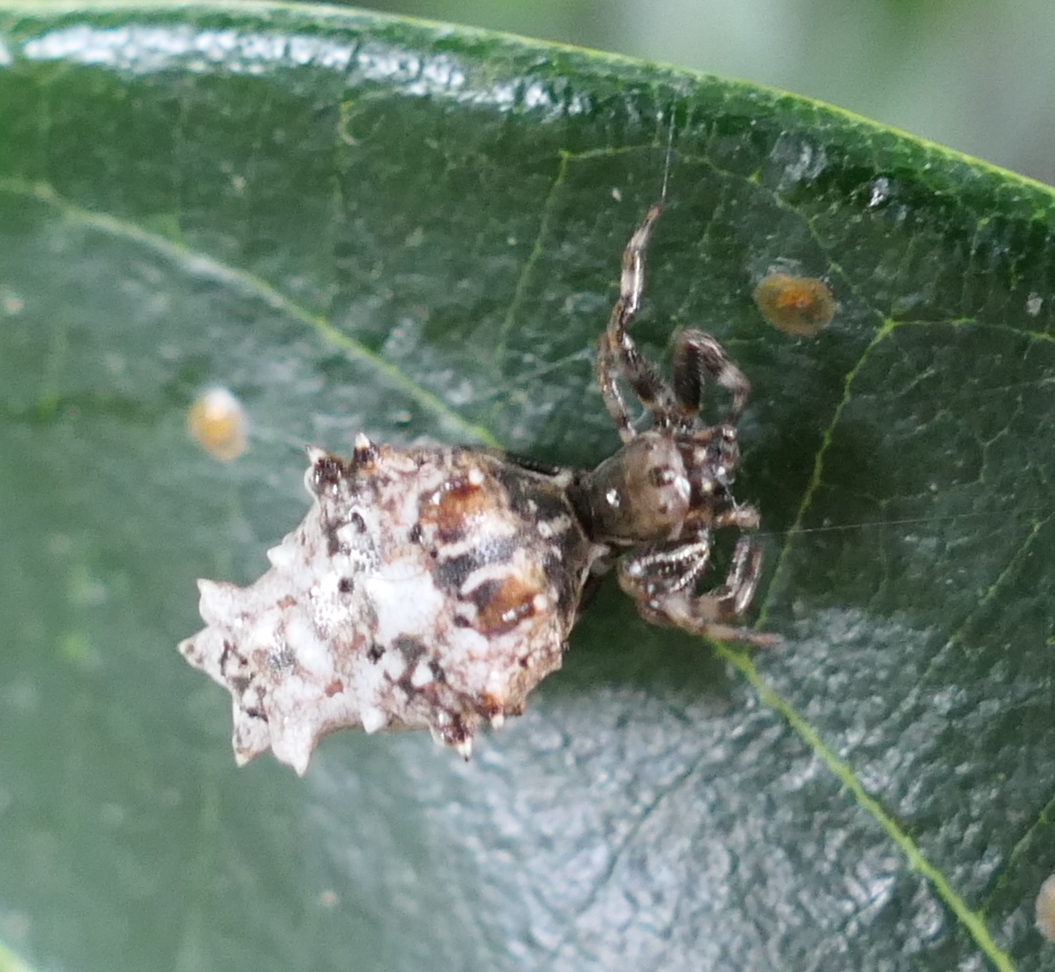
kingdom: Animalia
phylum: Arthropoda
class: Arachnida
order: Araneae
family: Araneidae
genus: Micrathena
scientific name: Micrathena horrida
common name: Orb weavers
